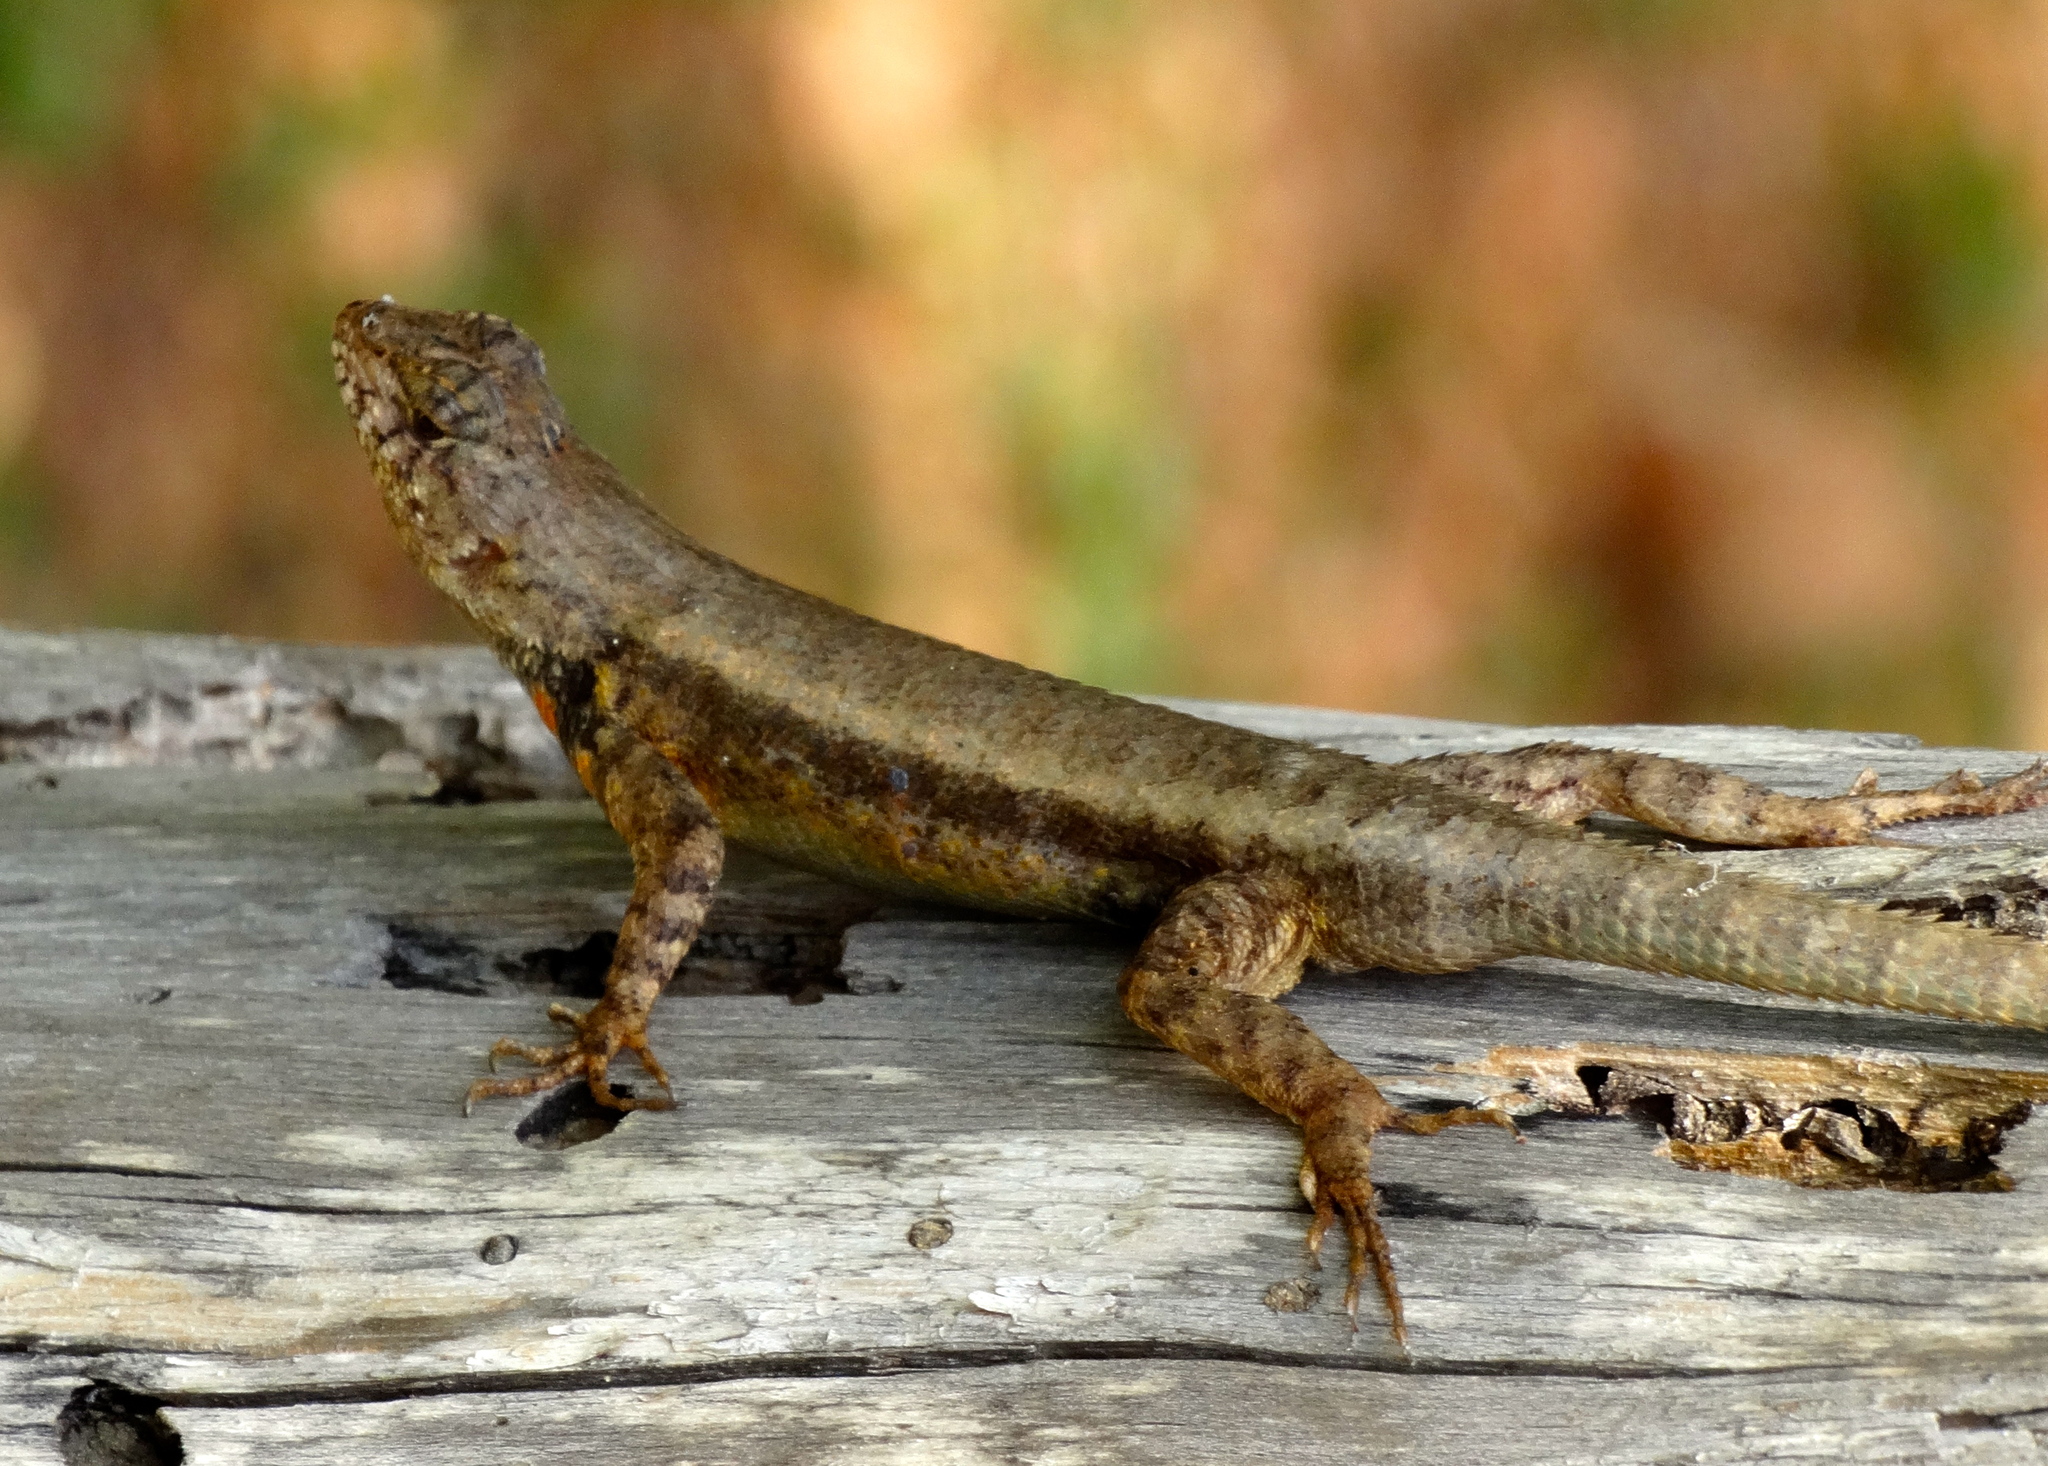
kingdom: Animalia
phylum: Chordata
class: Squamata
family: Phrynosomatidae
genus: Sceloporus
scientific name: Sceloporus nelsoni
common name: Nelson's spiny lizard
